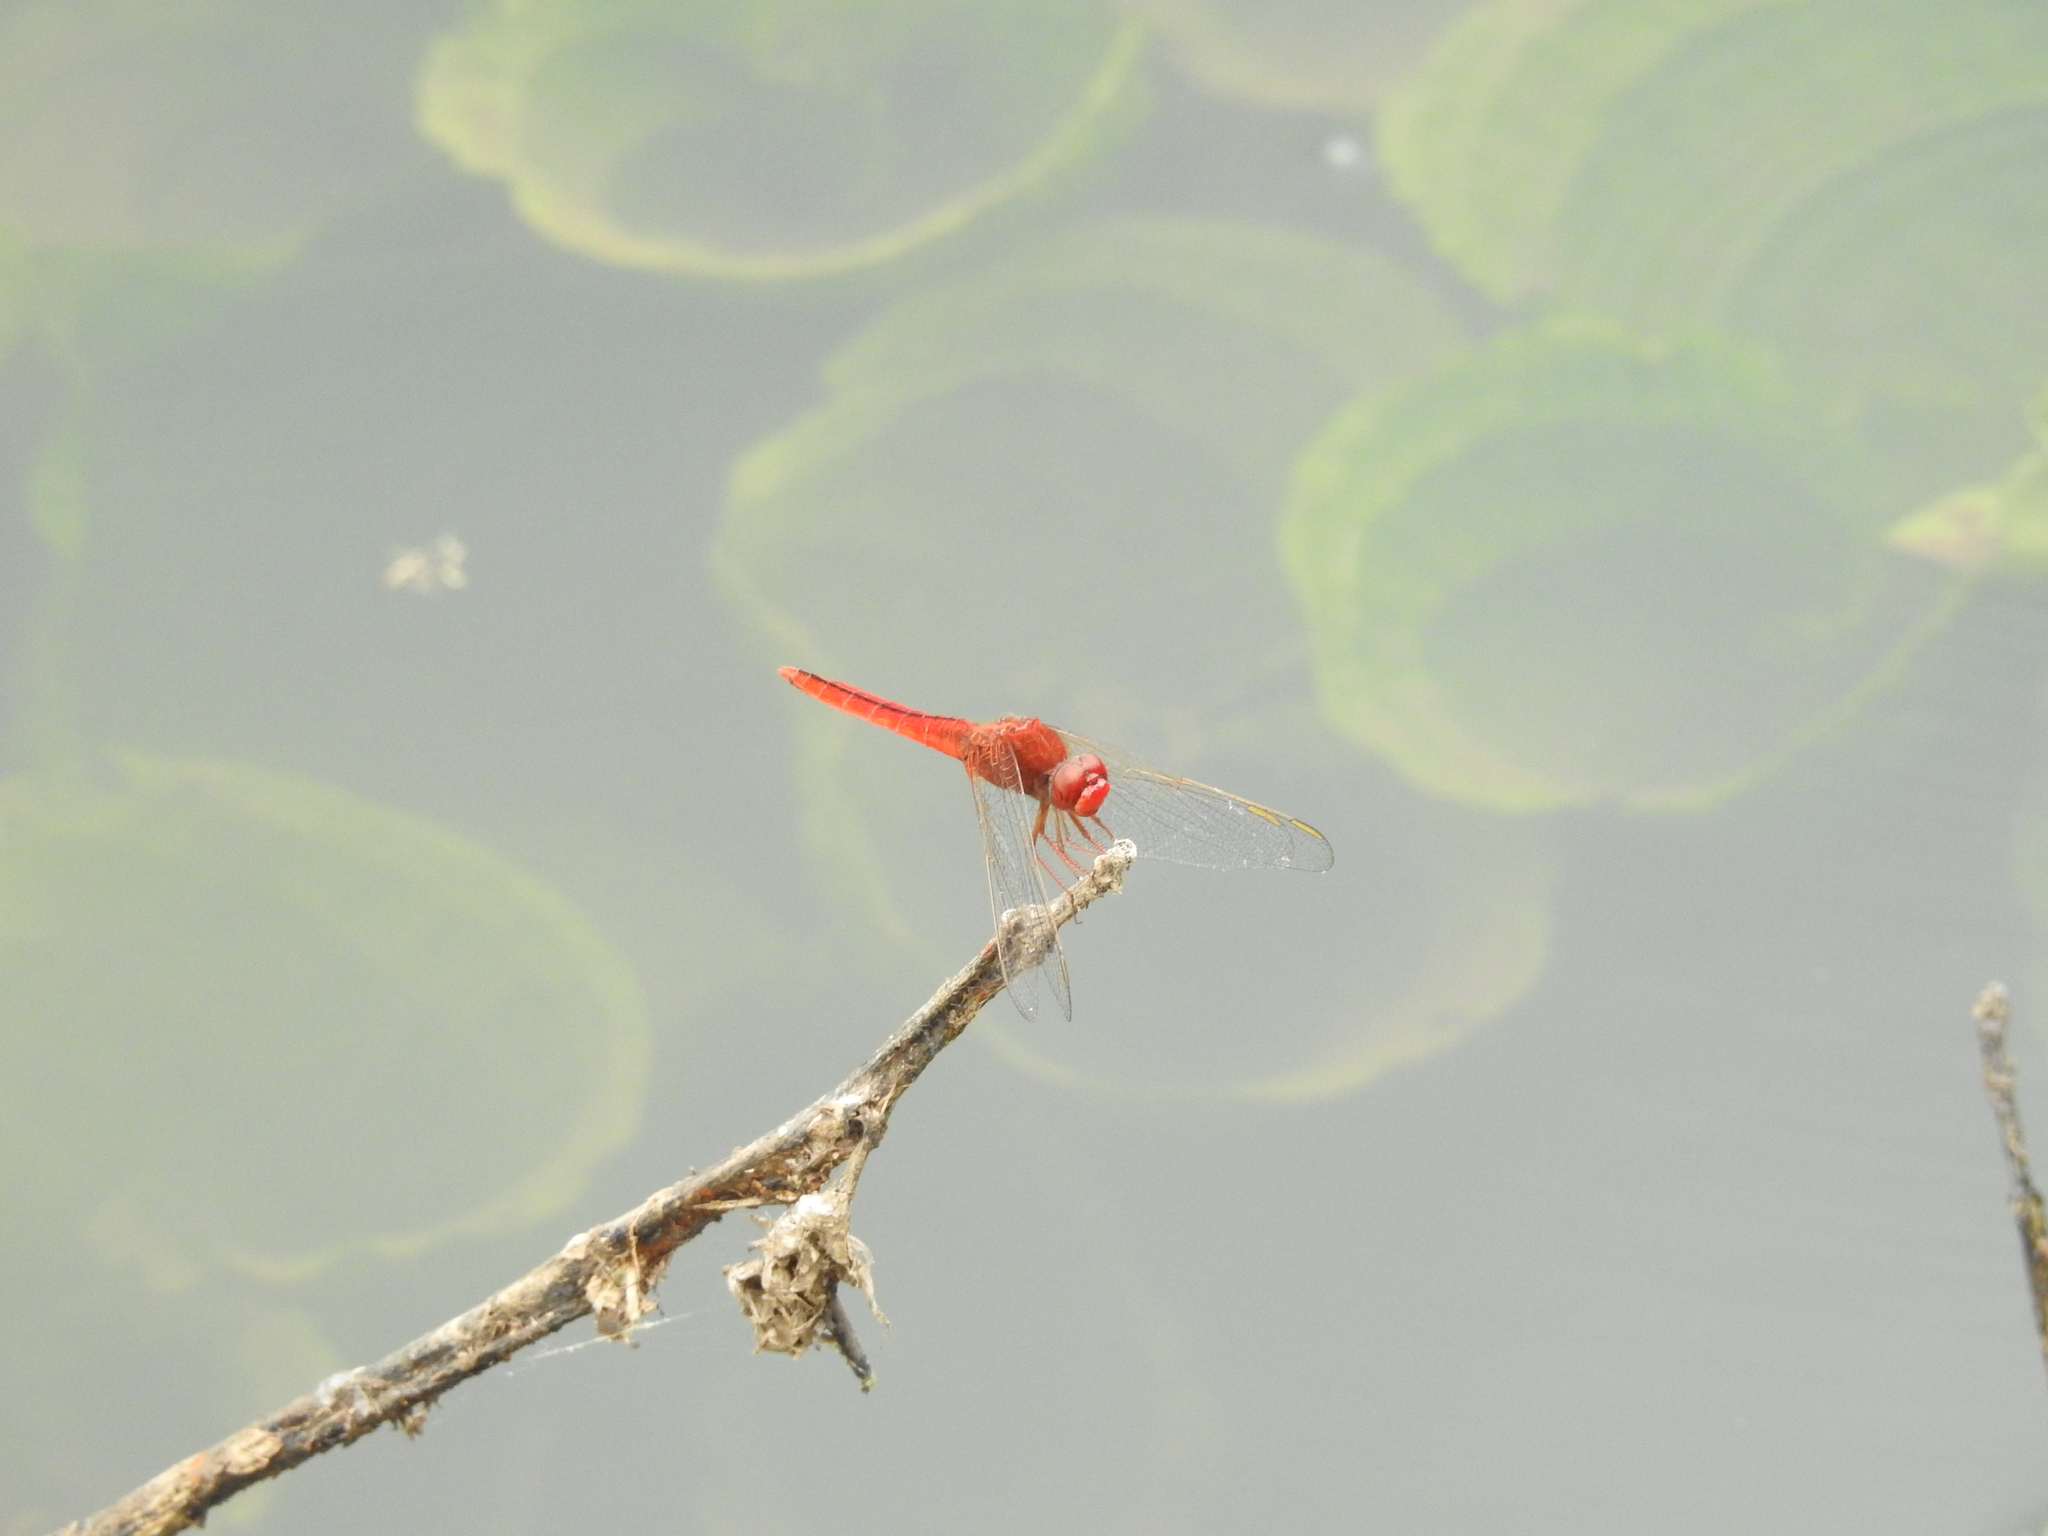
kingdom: Animalia
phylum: Arthropoda
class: Insecta
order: Odonata
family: Libellulidae
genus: Crocothemis
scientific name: Crocothemis servilia
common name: Scarlet skimmer
